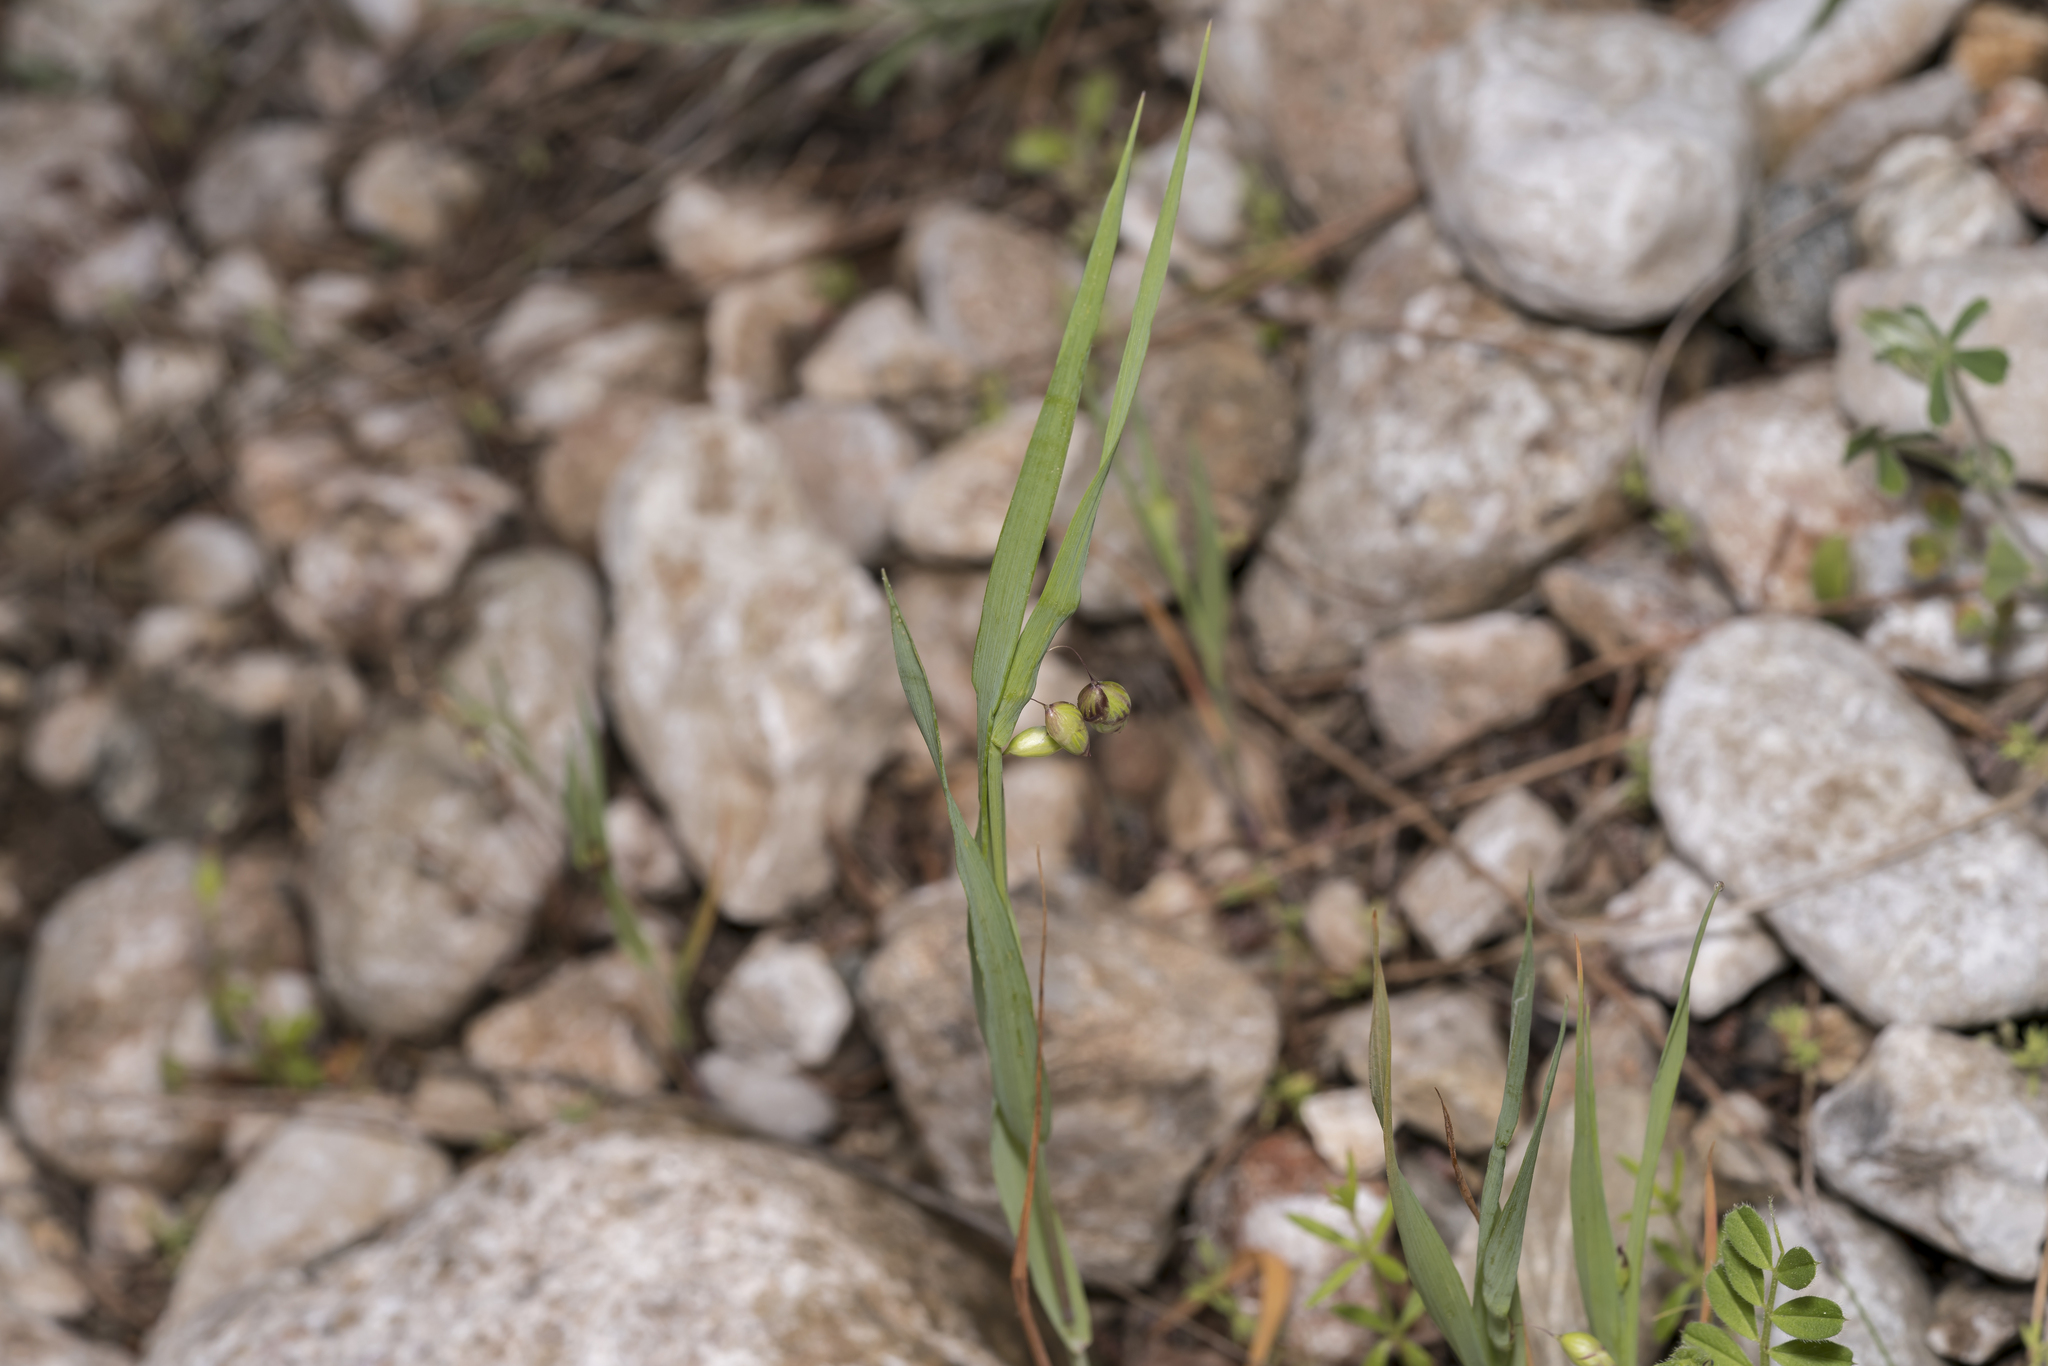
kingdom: Plantae
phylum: Tracheophyta
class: Liliopsida
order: Poales
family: Poaceae
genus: Briza
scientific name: Briza maxima
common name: Big quakinggrass
